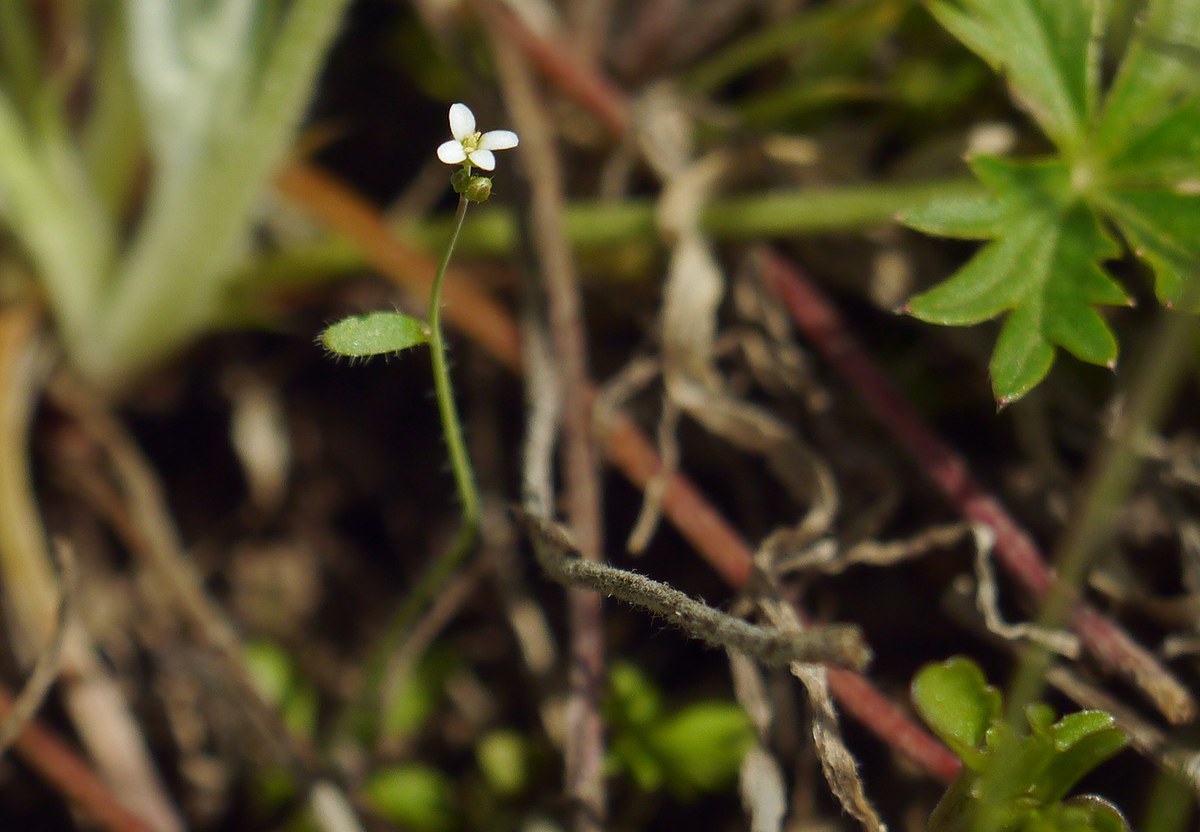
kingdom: Plantae
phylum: Tracheophyta
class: Magnoliopsida
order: Brassicales
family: Brassicaceae
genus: Arabidopsis
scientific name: Arabidopsis thaliana
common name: Thale cress
